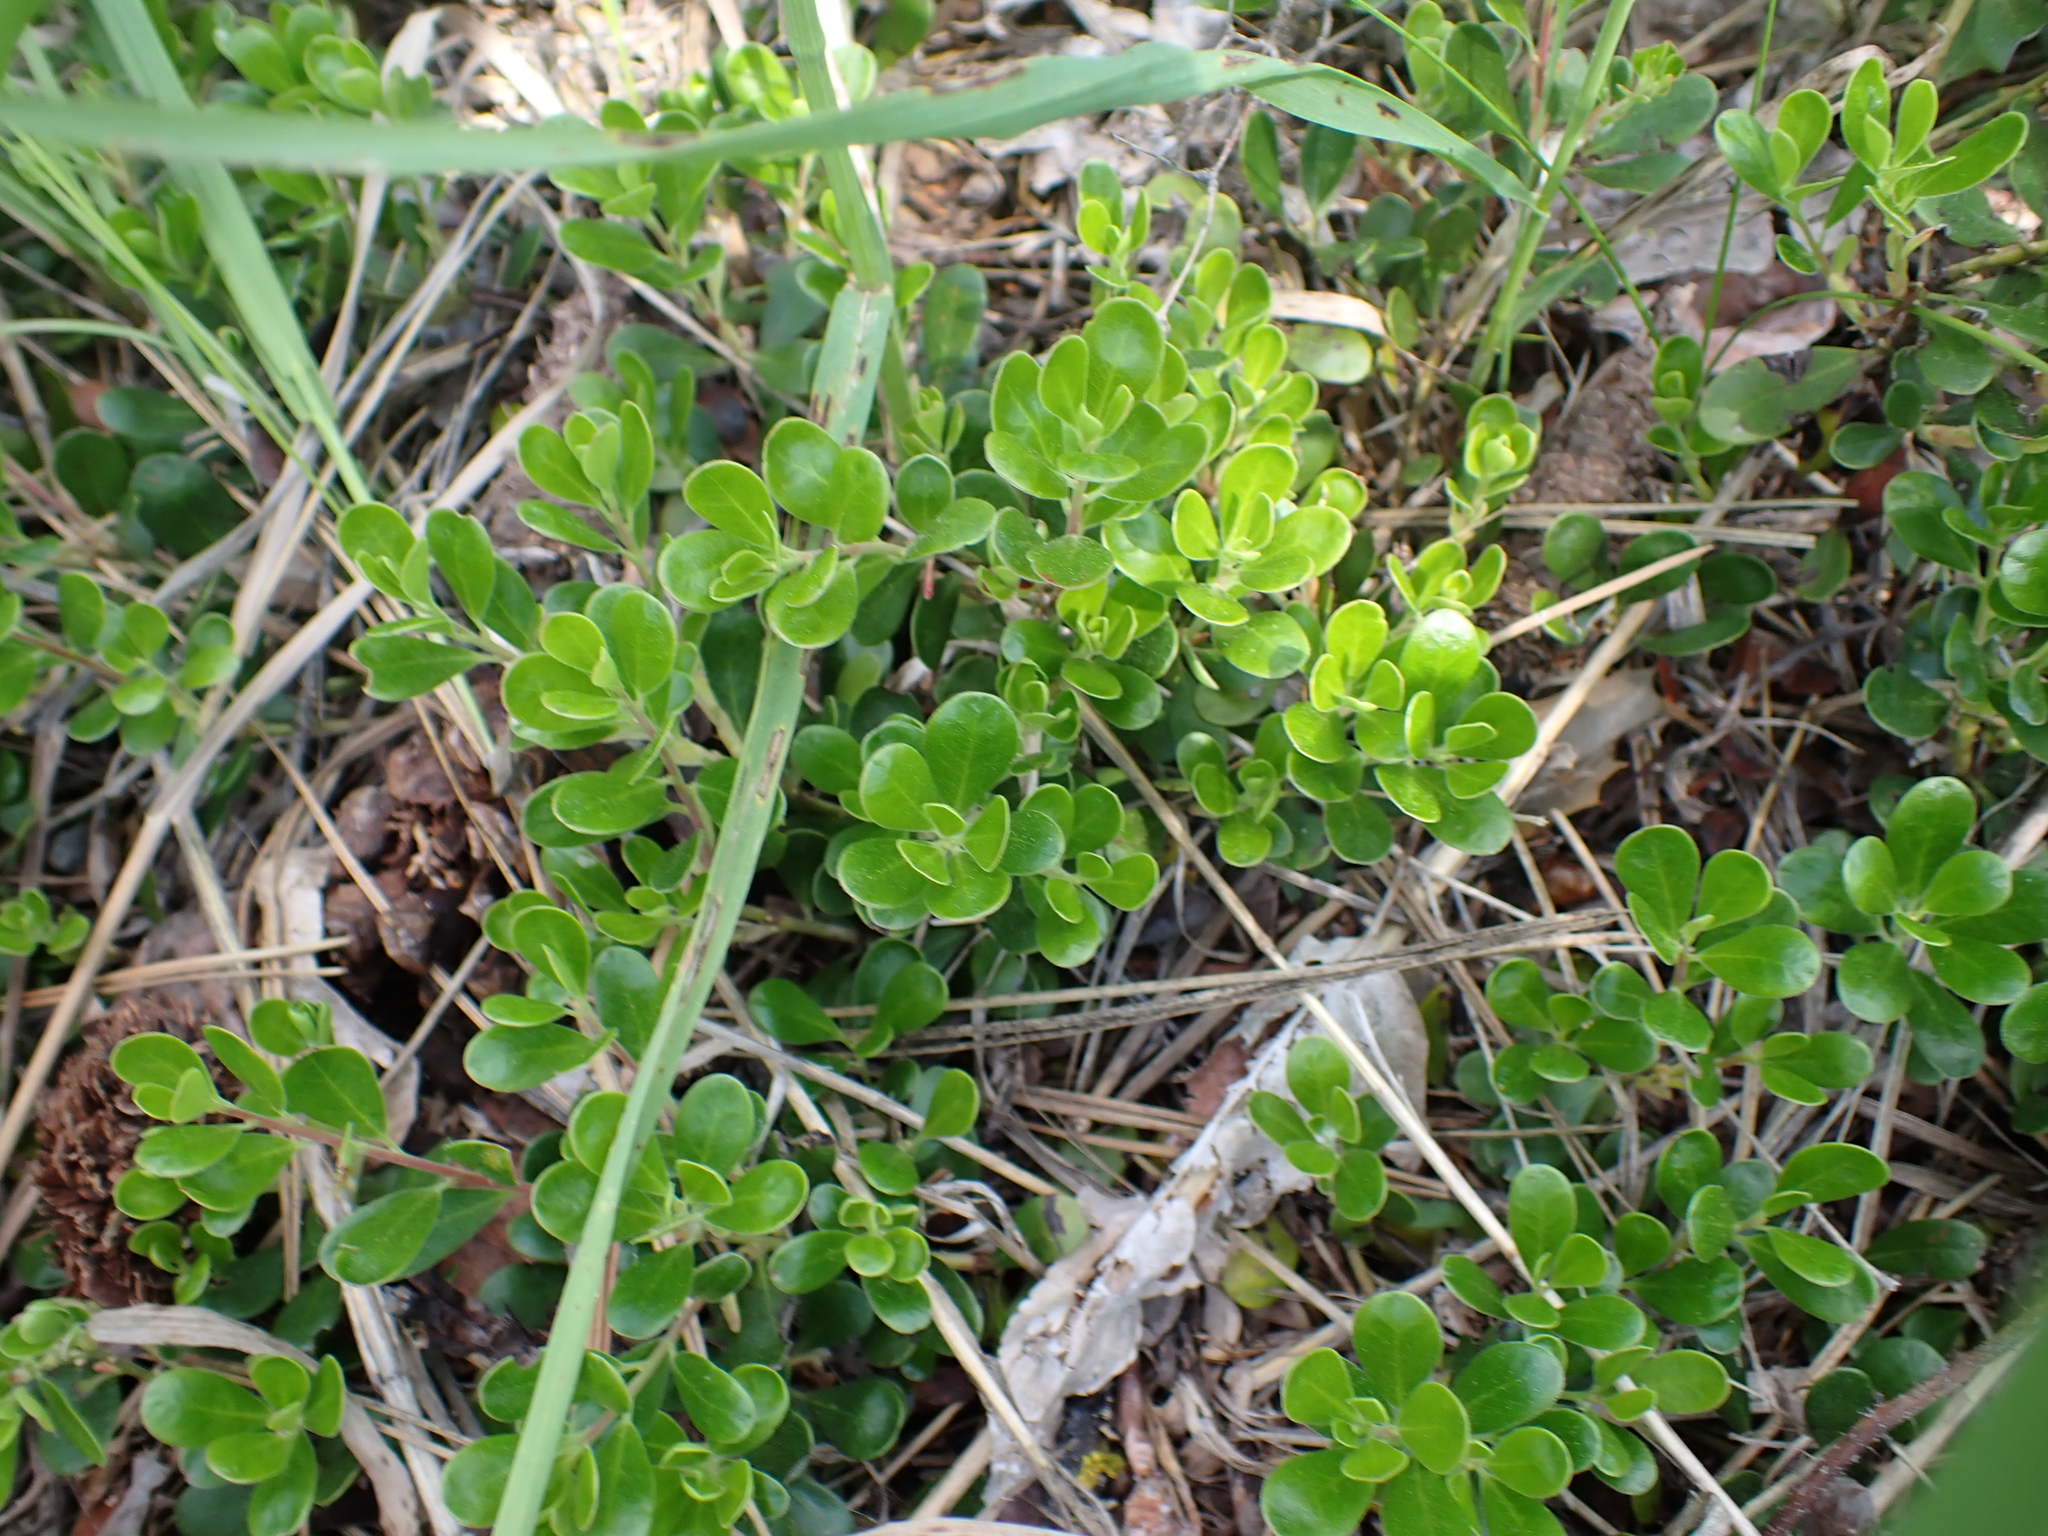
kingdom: Plantae
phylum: Tracheophyta
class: Magnoliopsida
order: Ericales
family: Ericaceae
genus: Arctostaphylos
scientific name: Arctostaphylos uva-ursi
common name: Bearberry
